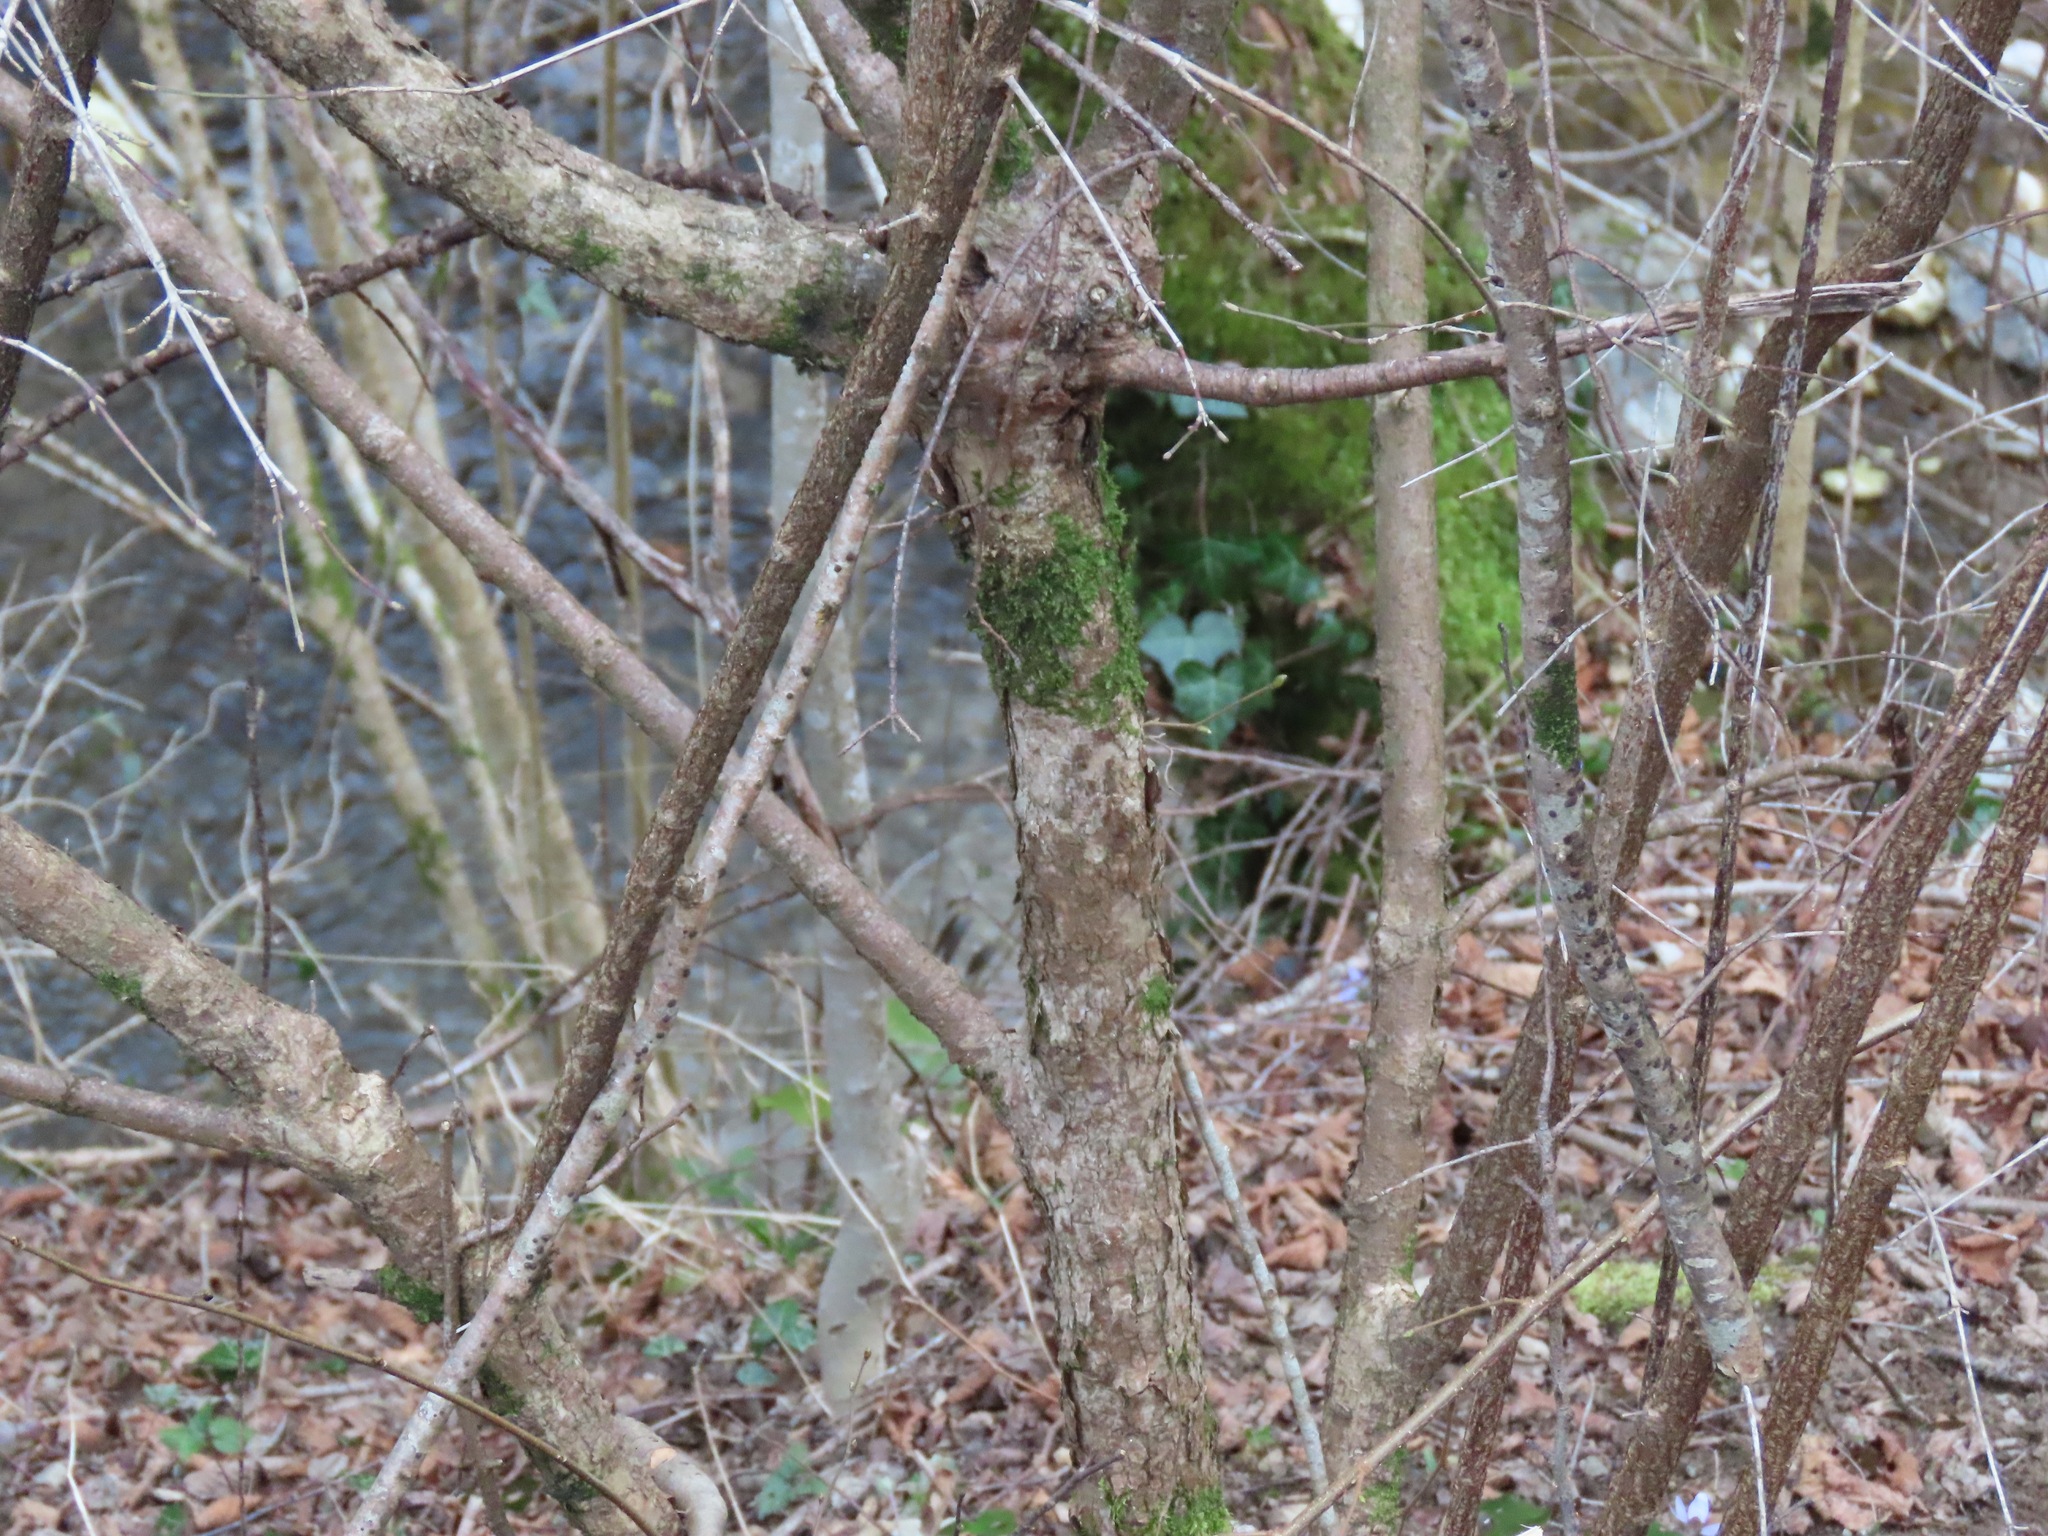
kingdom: Plantae
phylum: Tracheophyta
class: Magnoliopsida
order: Cornales
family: Cornaceae
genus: Cornus
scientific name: Cornus mas
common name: Cornelian-cherry
